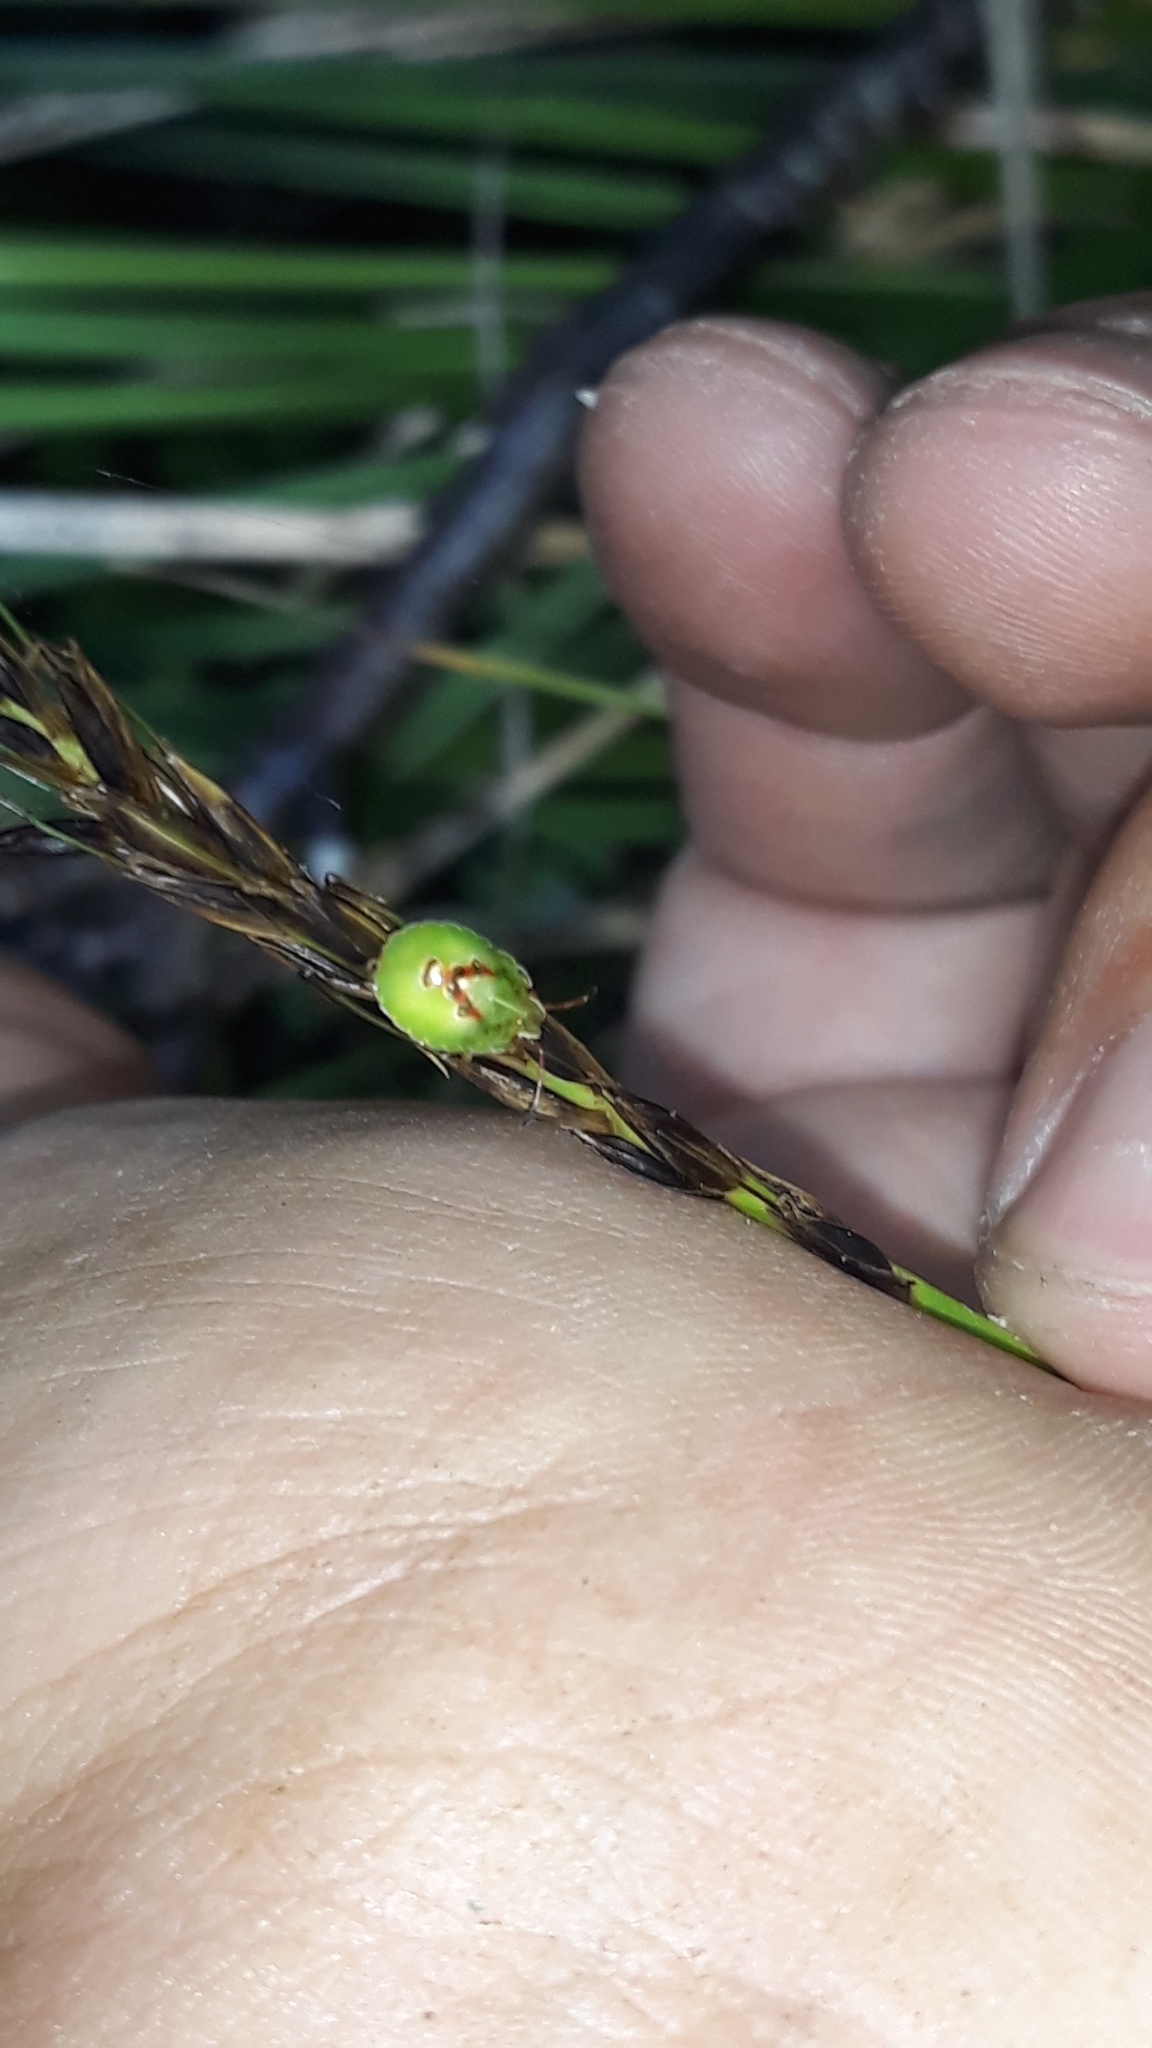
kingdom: Animalia
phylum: Arthropoda
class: Insecta
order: Hemiptera
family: Acanthosomatidae
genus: Oncacontias
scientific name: Oncacontias vittatus
